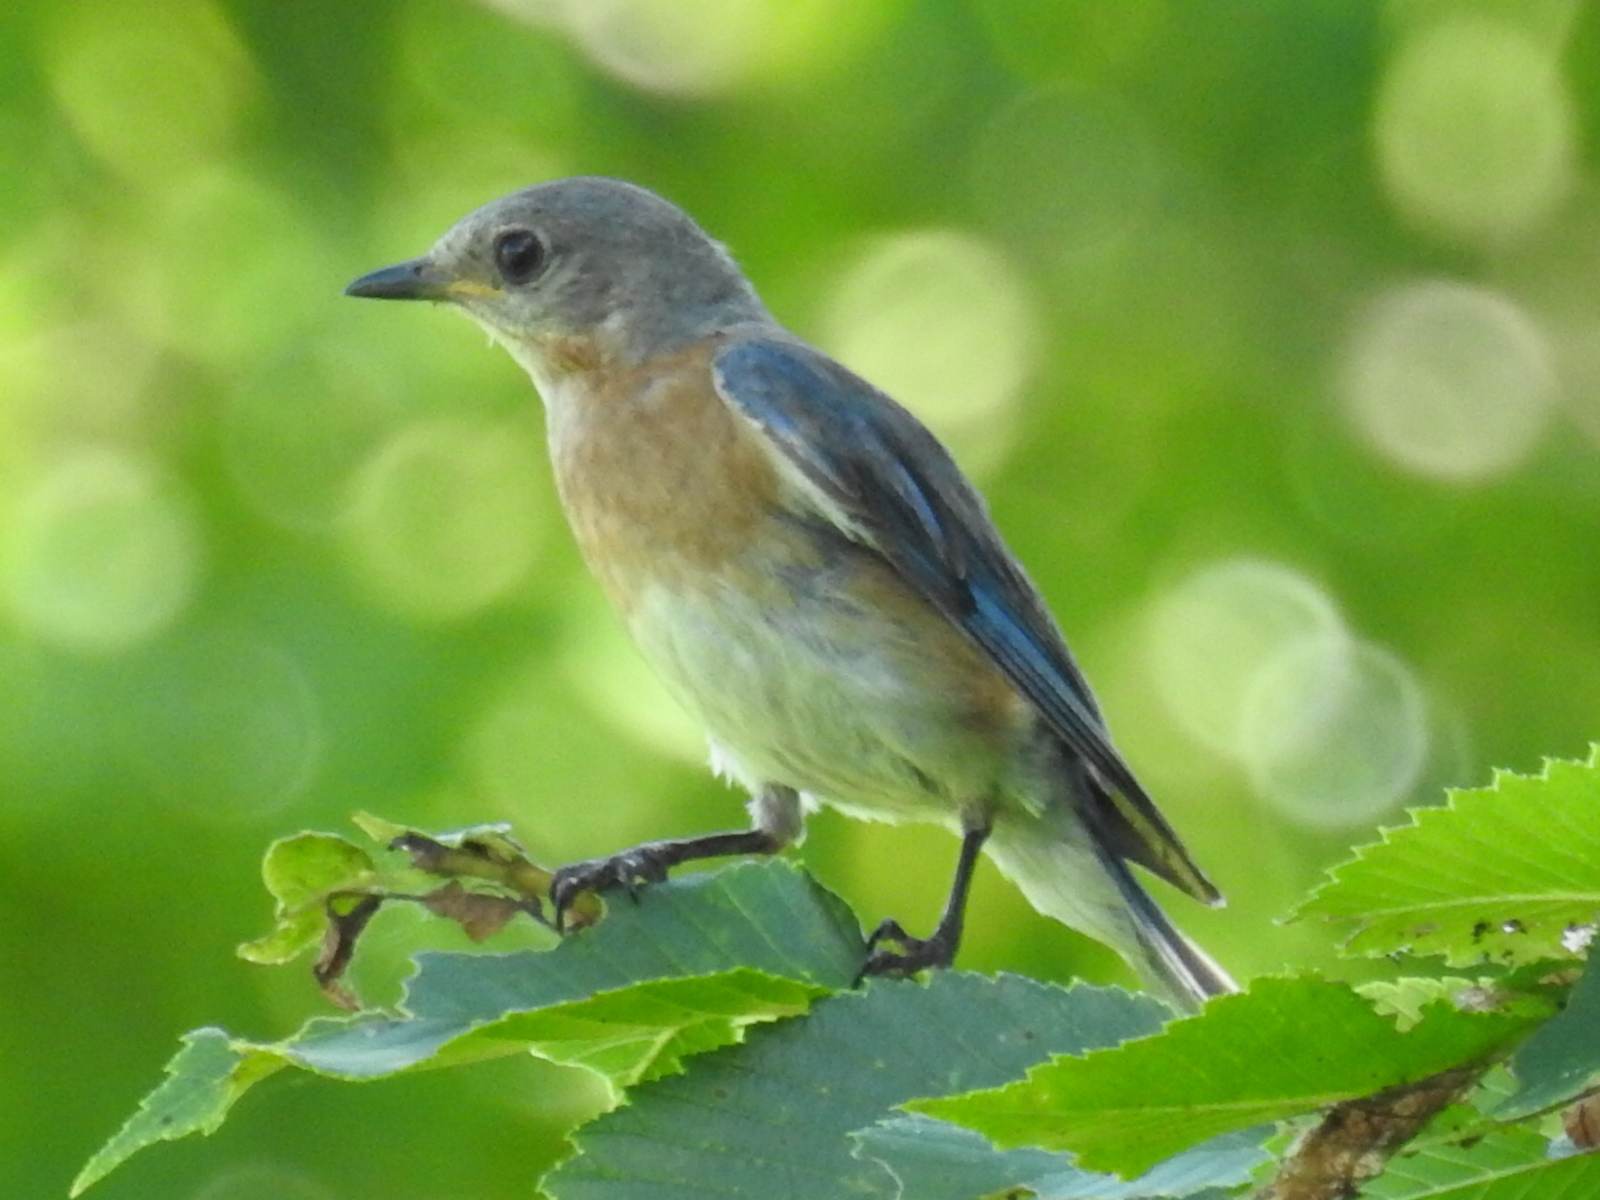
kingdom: Animalia
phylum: Chordata
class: Aves
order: Passeriformes
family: Turdidae
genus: Sialia
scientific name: Sialia sialis
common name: Eastern bluebird
